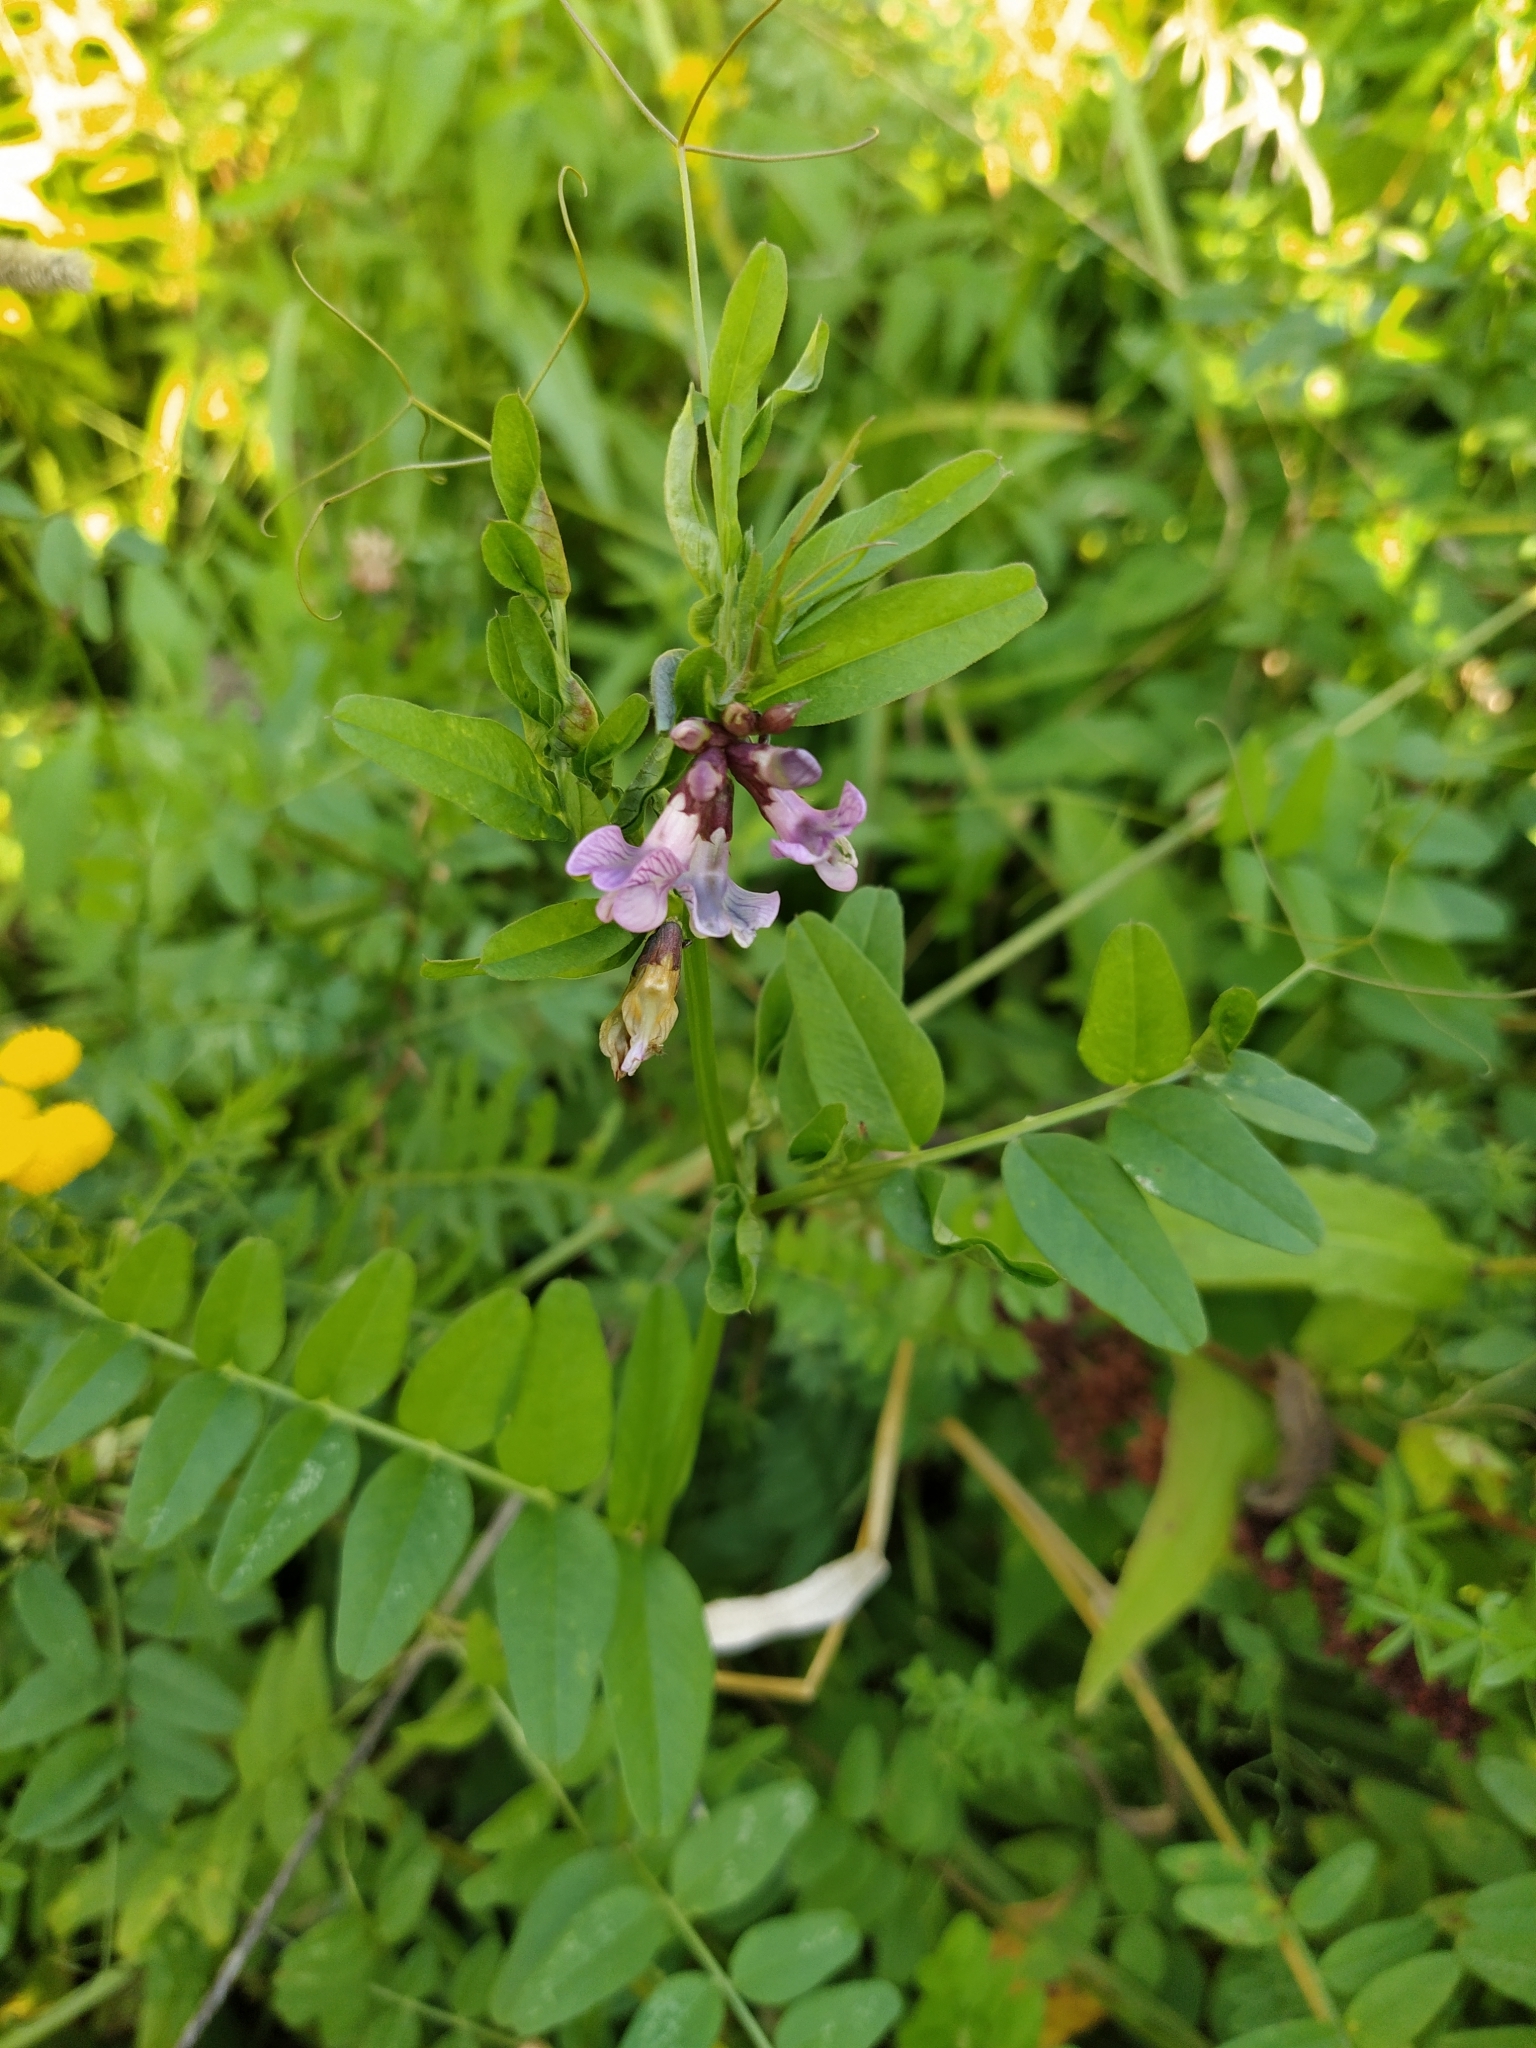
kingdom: Plantae
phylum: Tracheophyta
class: Magnoliopsida
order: Fabales
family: Fabaceae
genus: Vicia
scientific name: Vicia sepium
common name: Bush vetch
